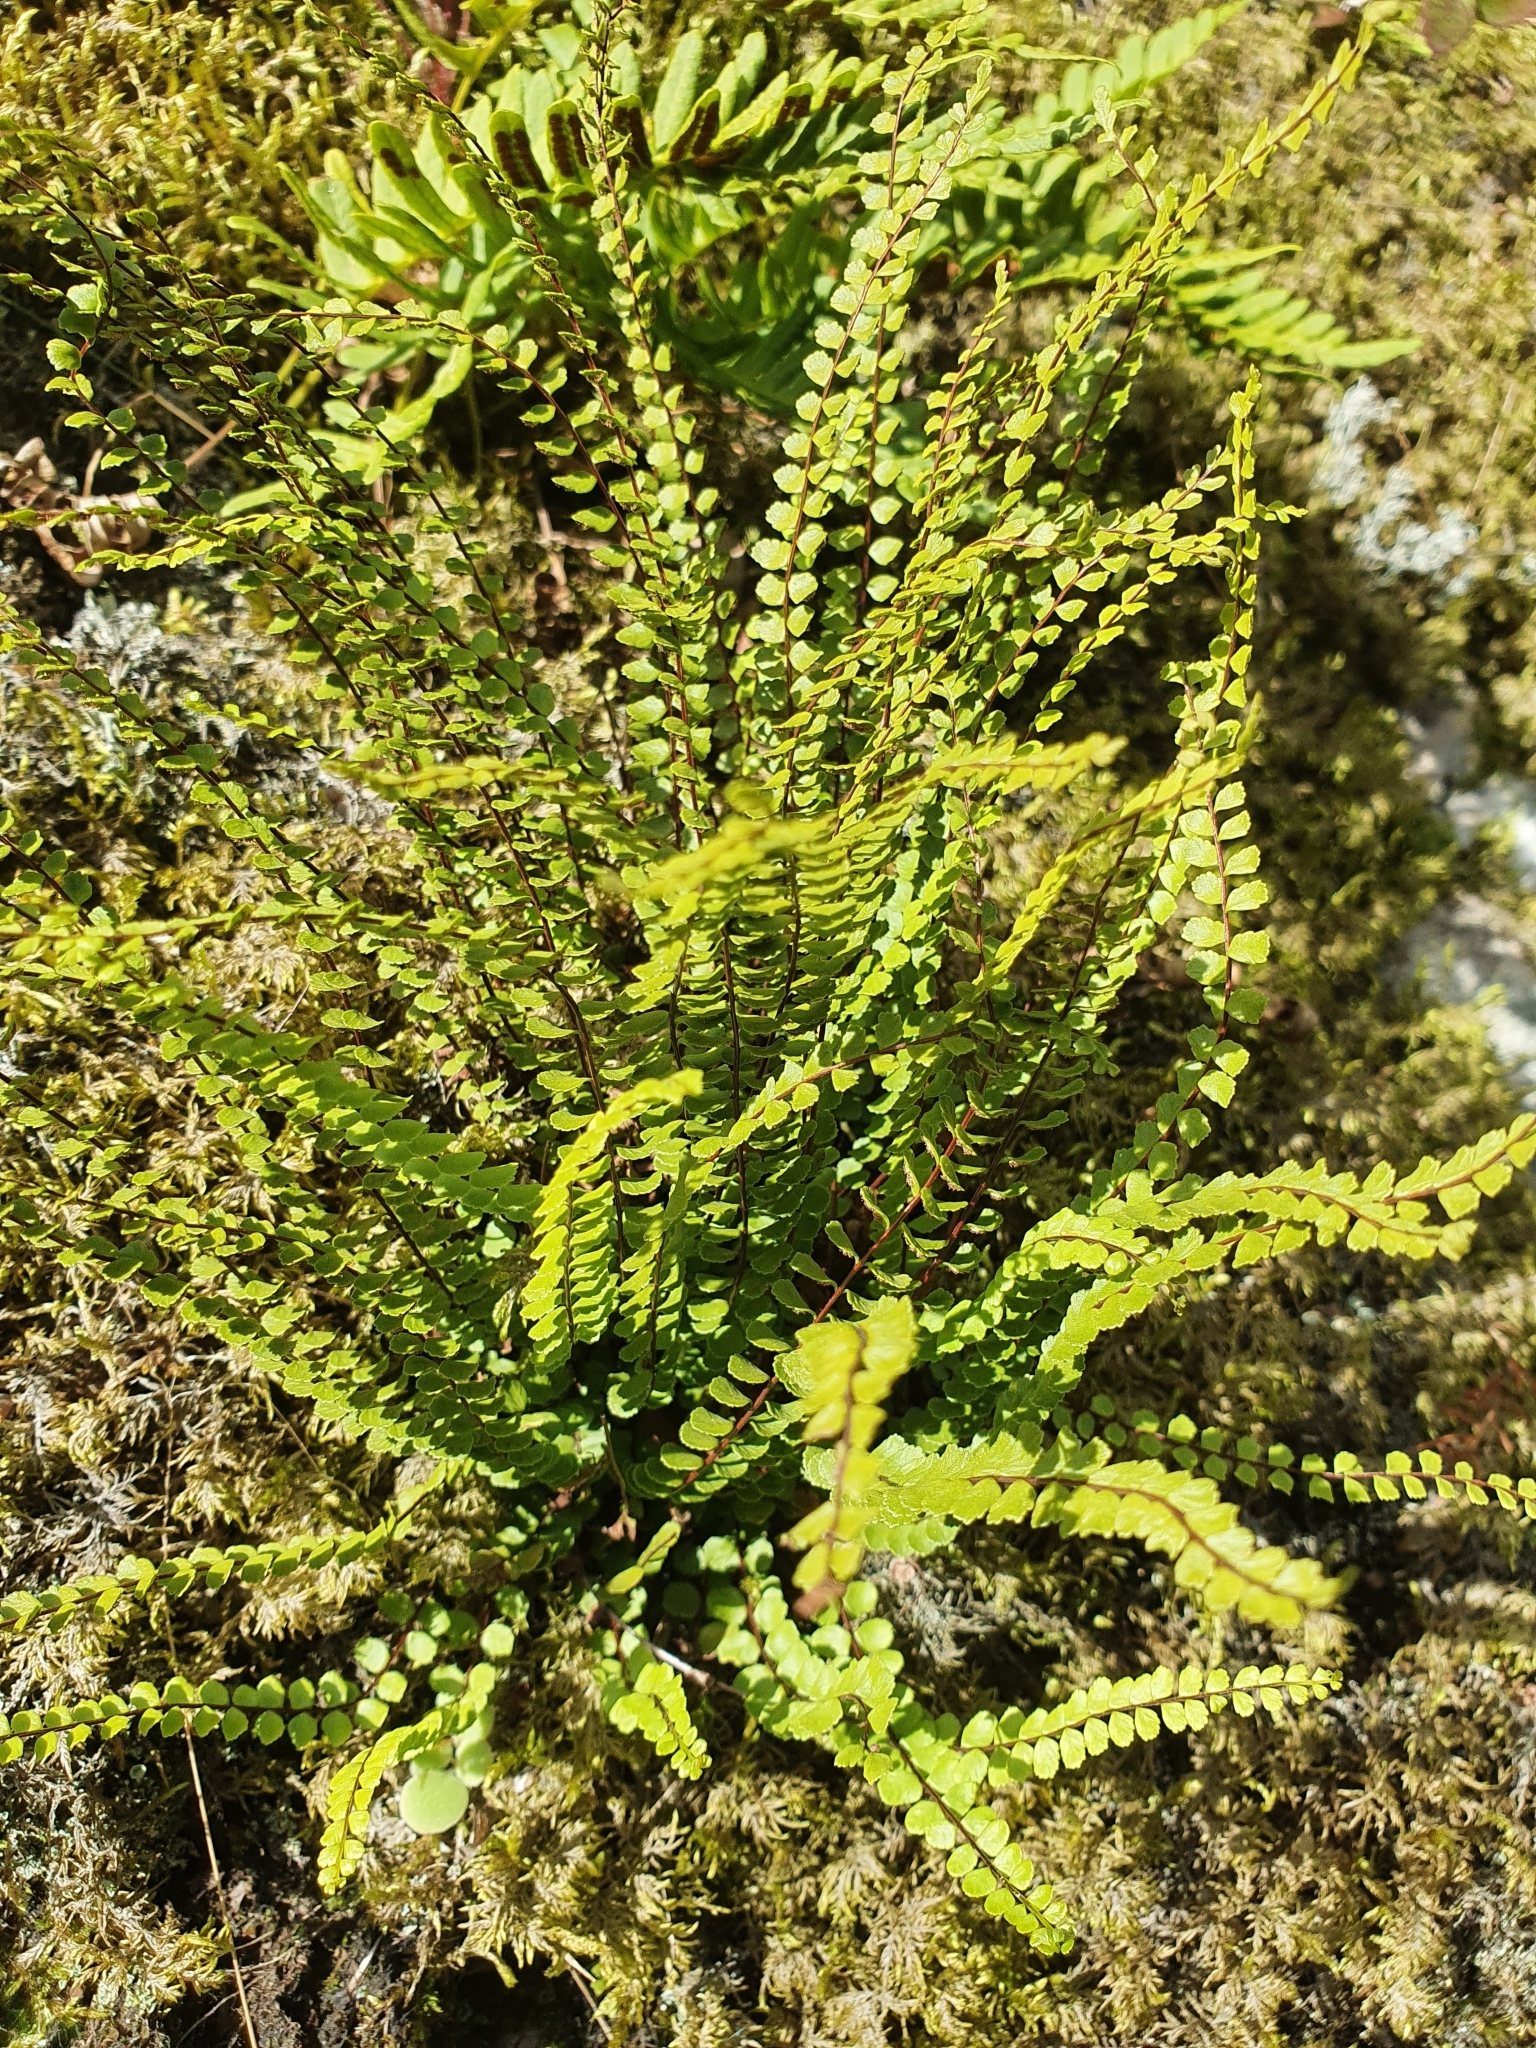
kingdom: Plantae
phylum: Tracheophyta
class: Polypodiopsida
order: Polypodiales
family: Aspleniaceae
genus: Asplenium
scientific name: Asplenium trichomanes
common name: Maidenhair spleenwort
